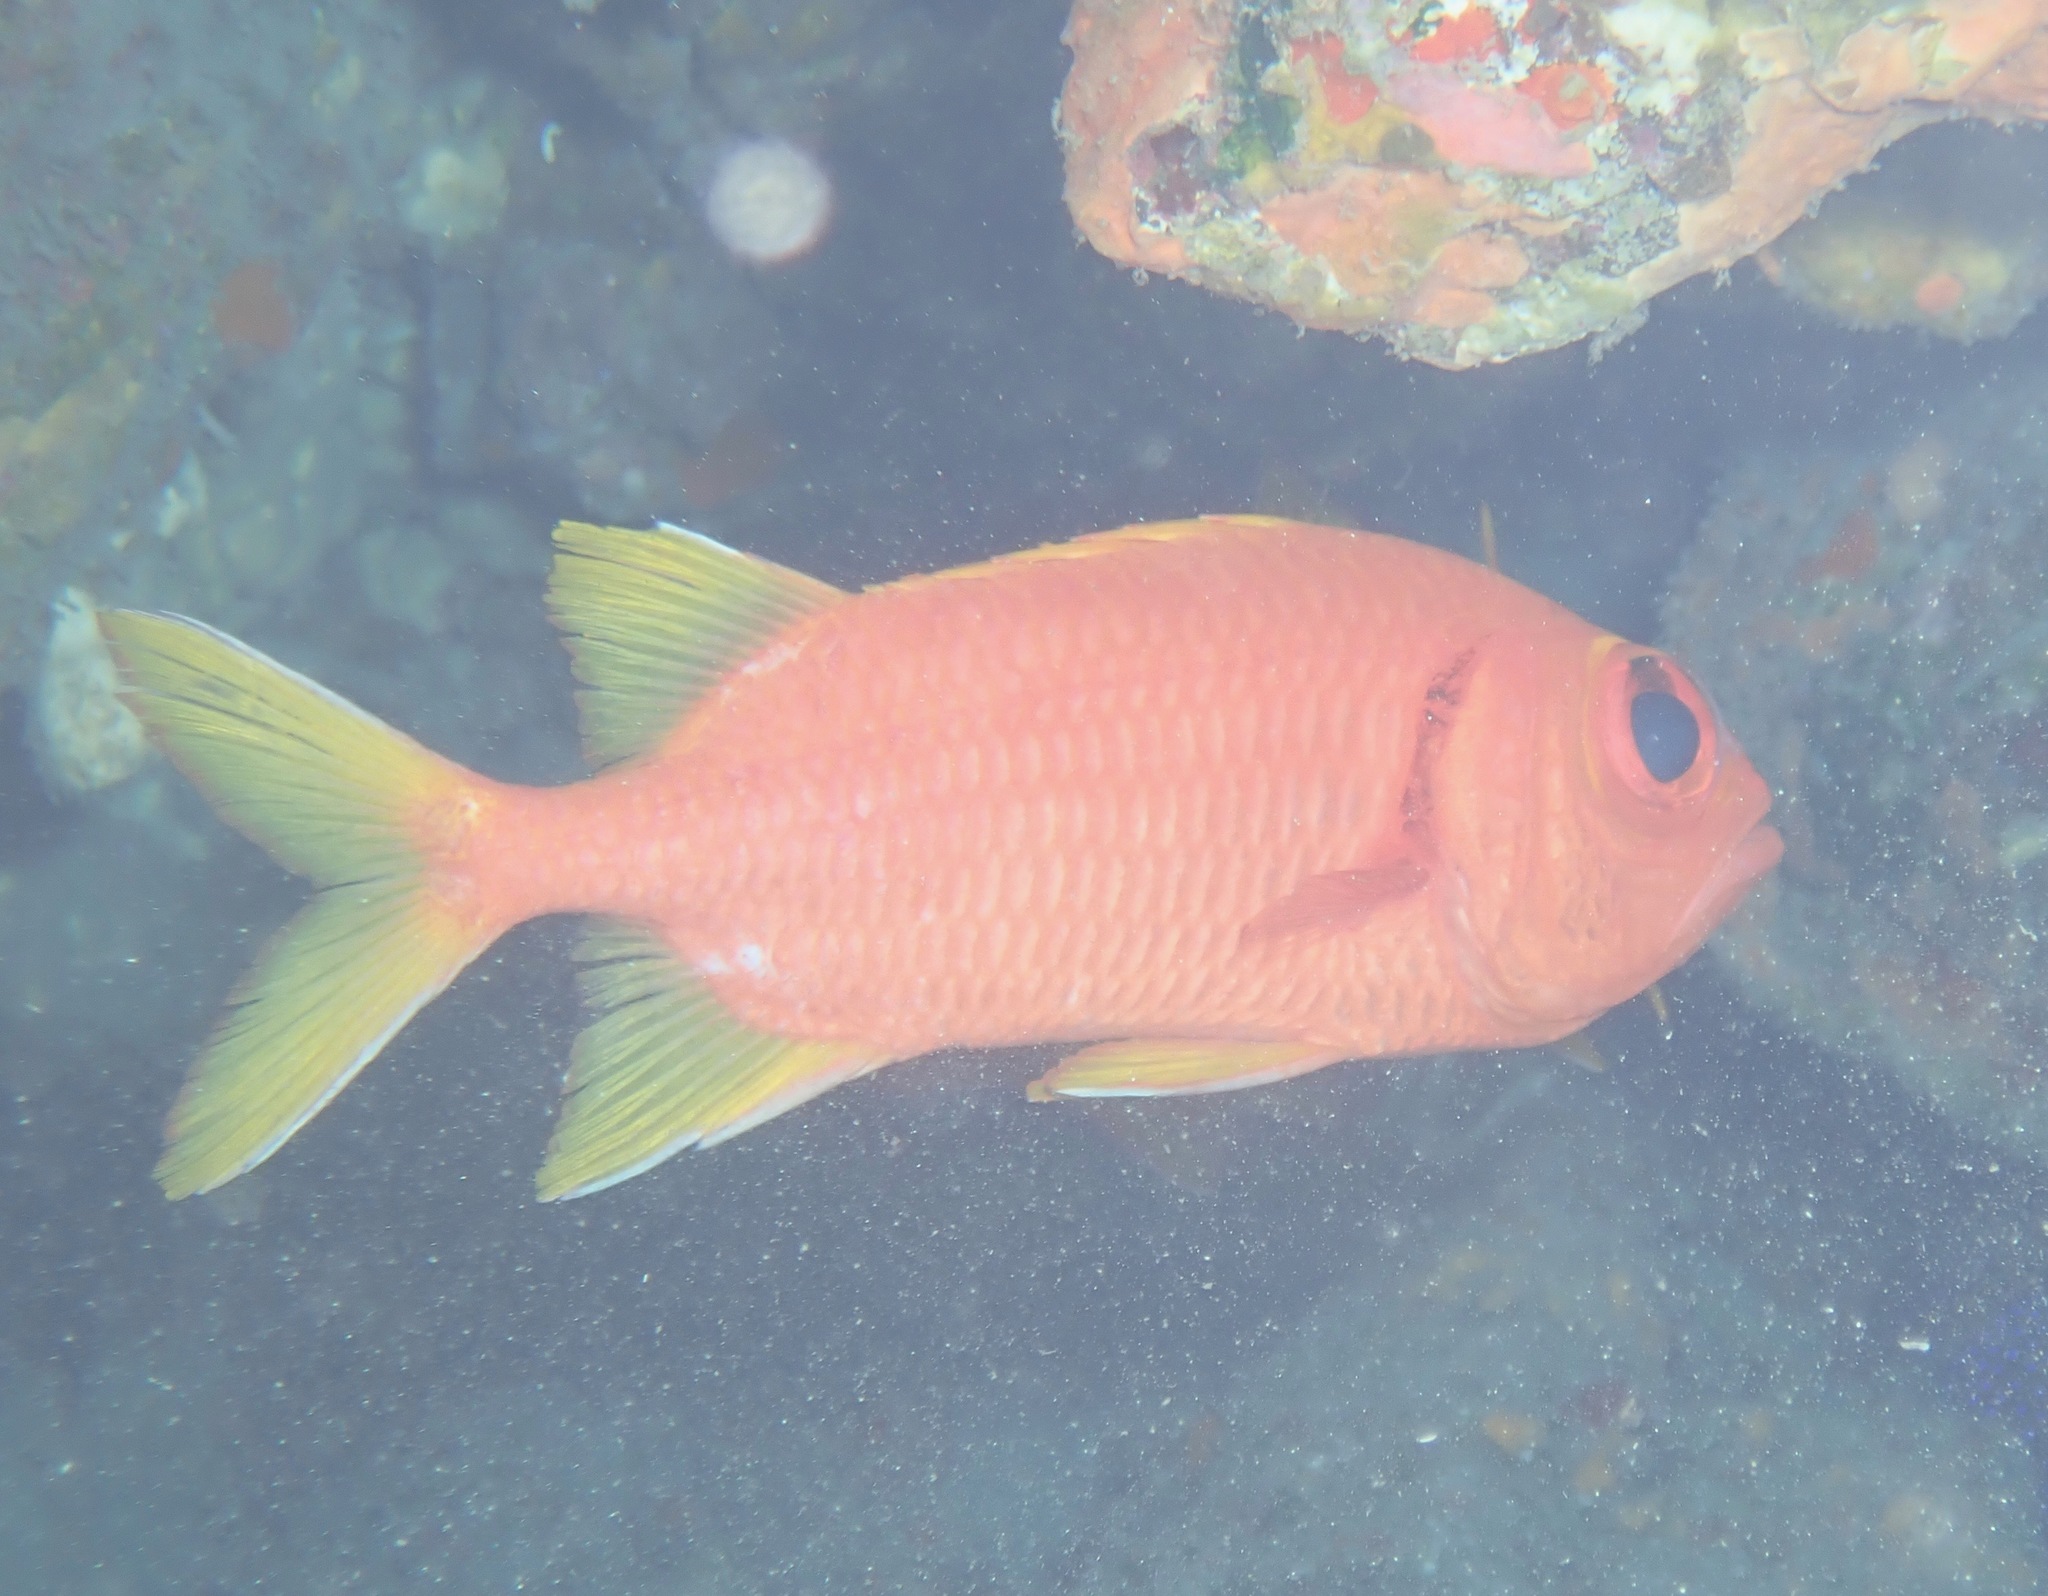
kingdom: Animalia
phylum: Chordata
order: Beryciformes
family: Holocentridae
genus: Myripristis
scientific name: Myripristis chryseres
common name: Golden-finned squirrelfish
